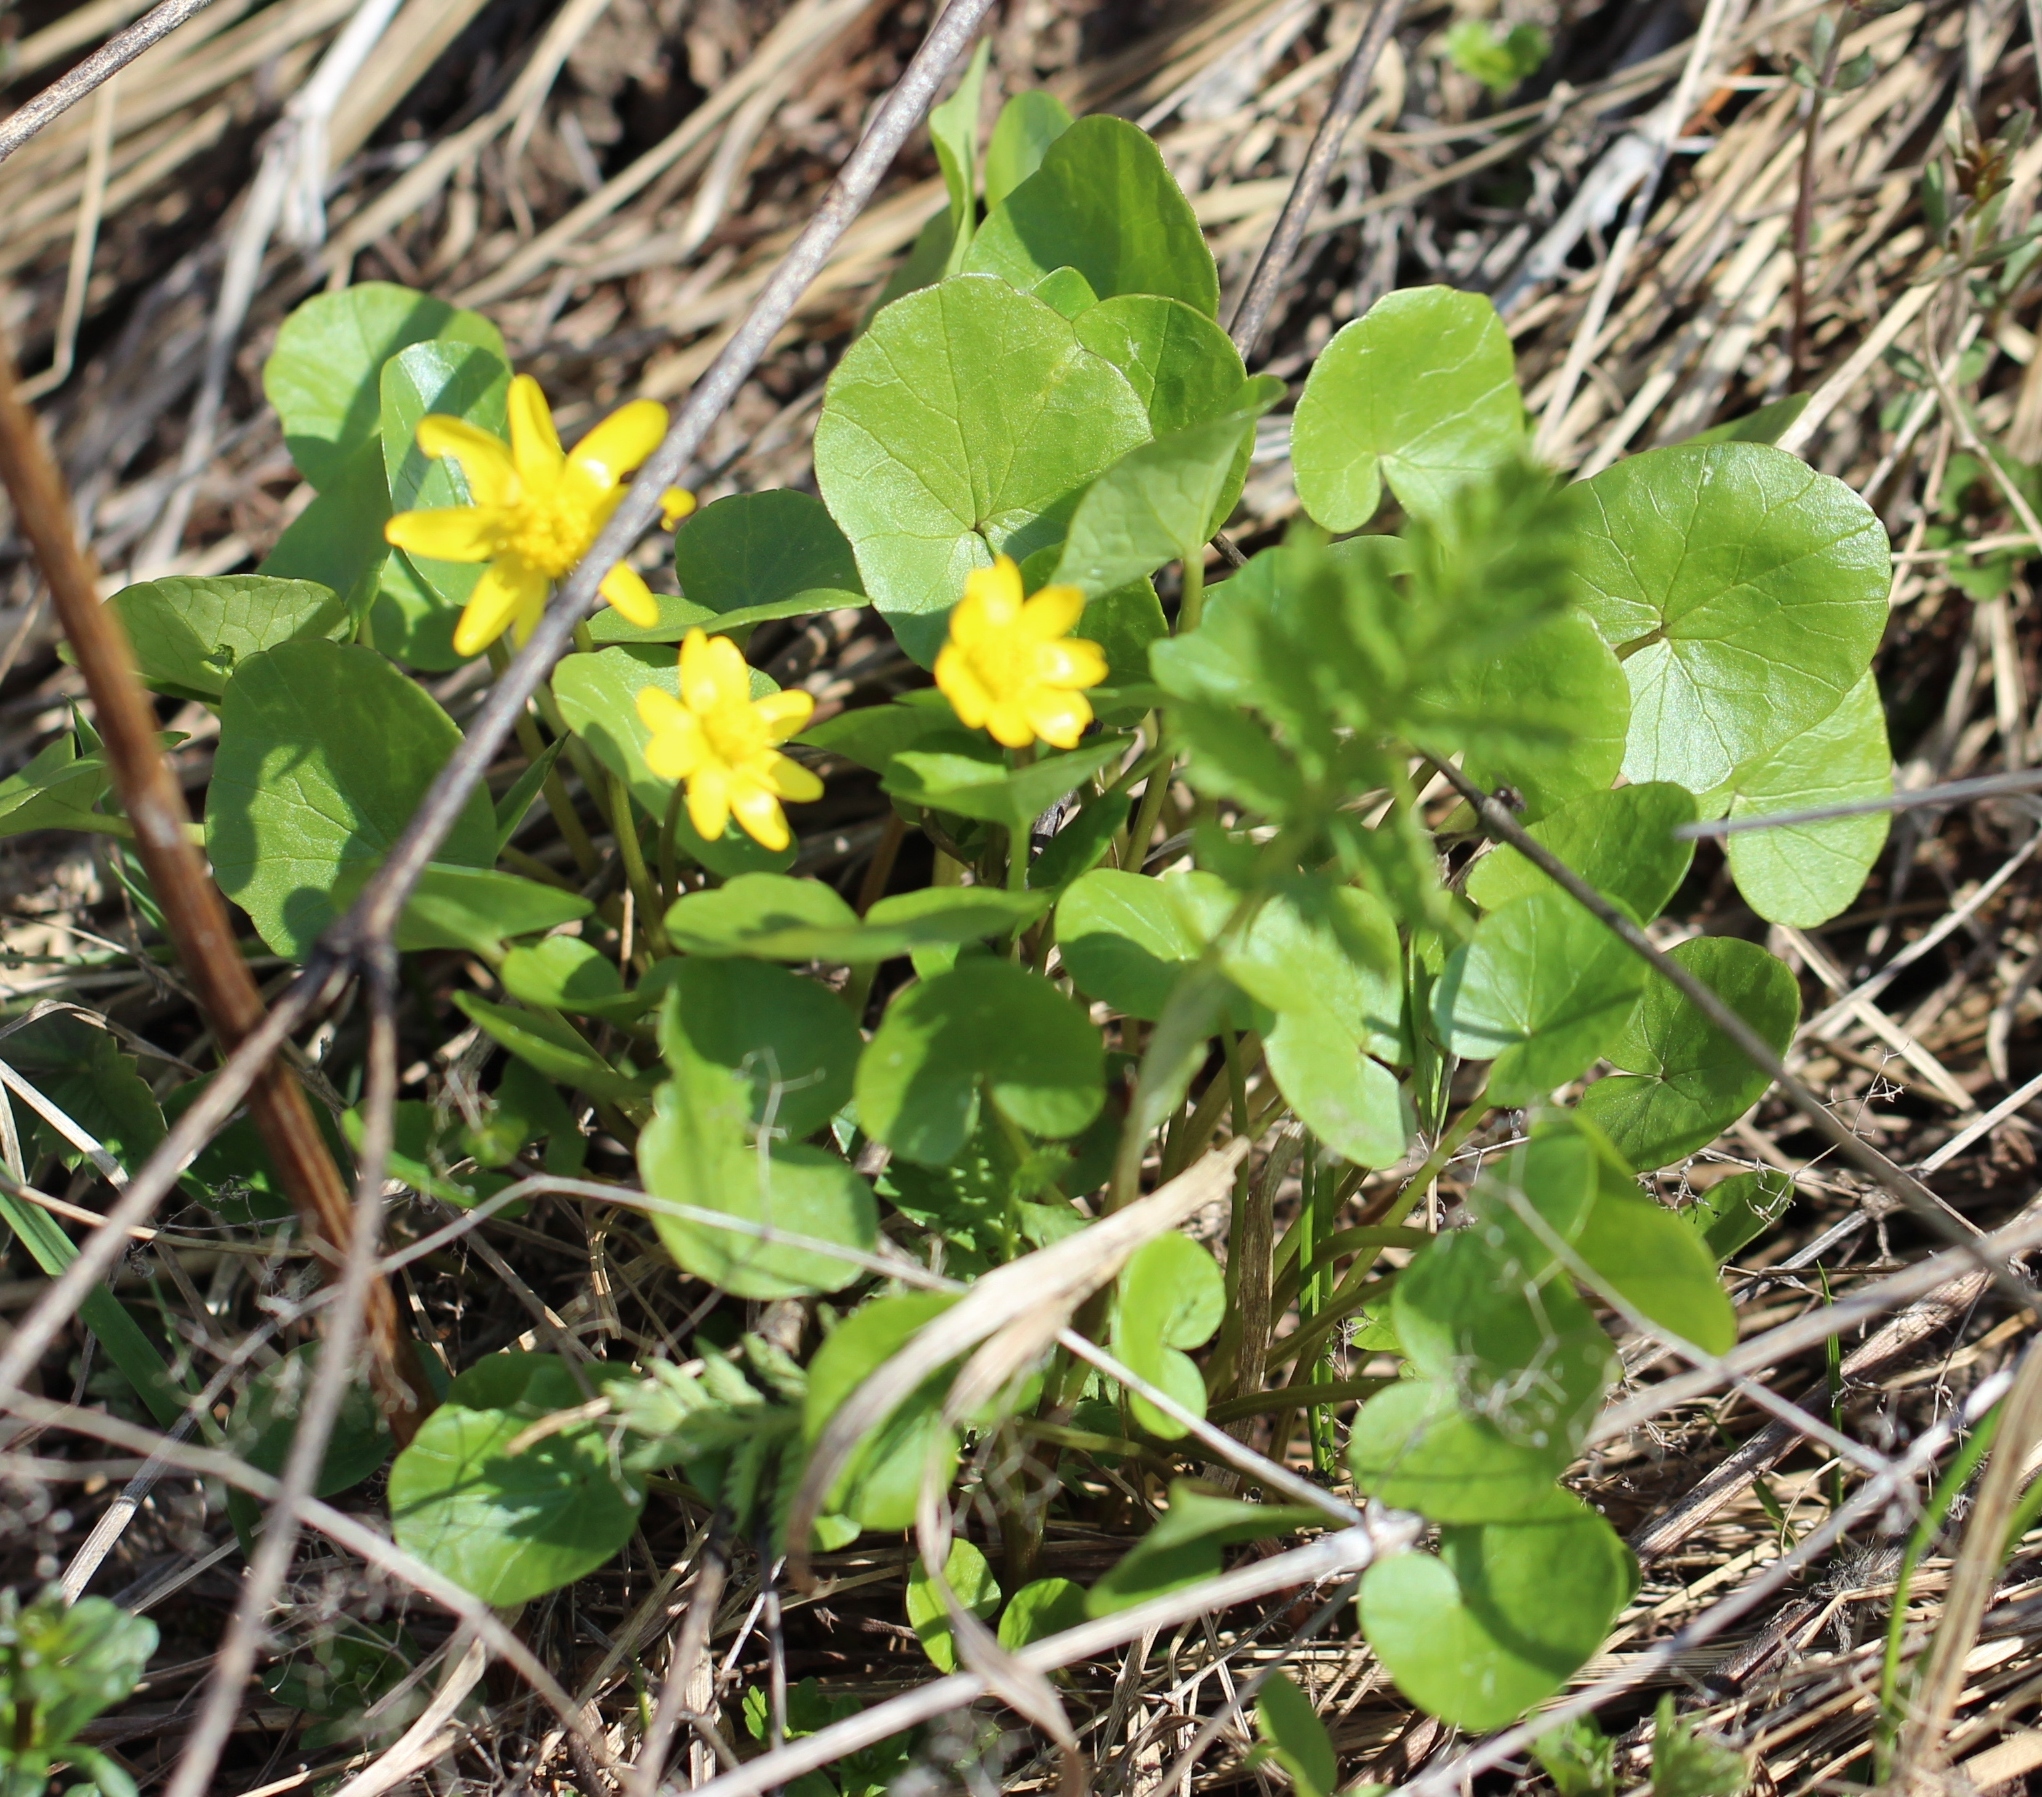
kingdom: Plantae
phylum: Tracheophyta
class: Magnoliopsida
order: Ranunculales
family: Ranunculaceae
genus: Ficaria
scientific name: Ficaria verna
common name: Lesser celandine
